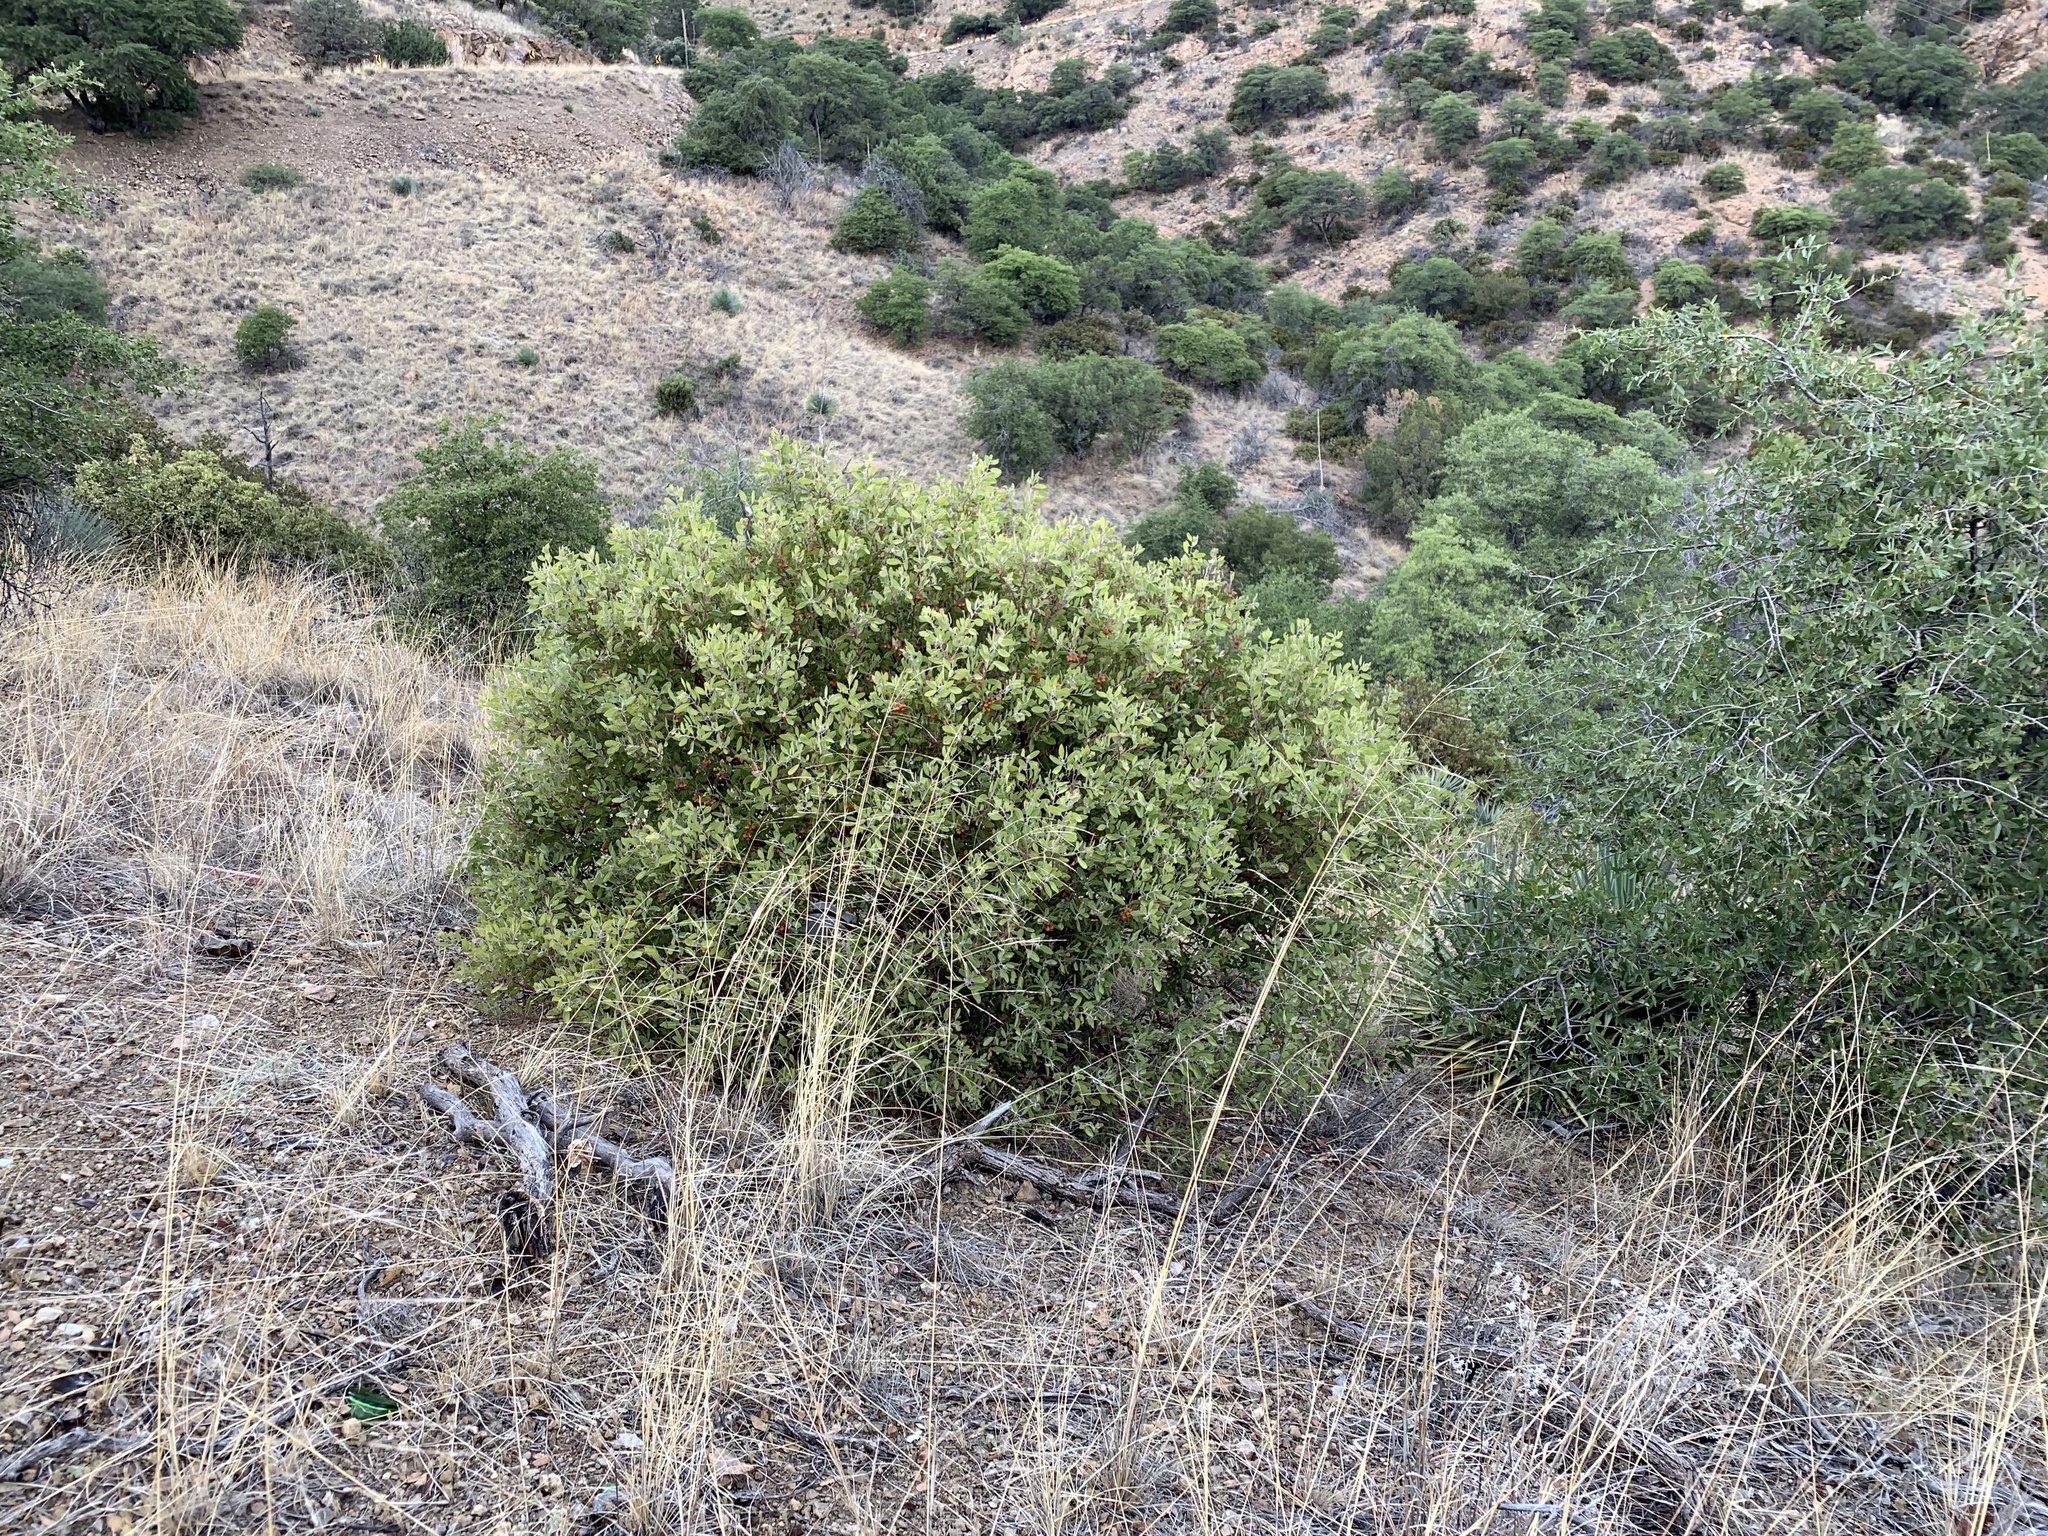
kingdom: Plantae
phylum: Tracheophyta
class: Magnoliopsida
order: Ericales
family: Ericaceae
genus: Arctostaphylos
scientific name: Arctostaphylos pungens
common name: Mexican manzanita
